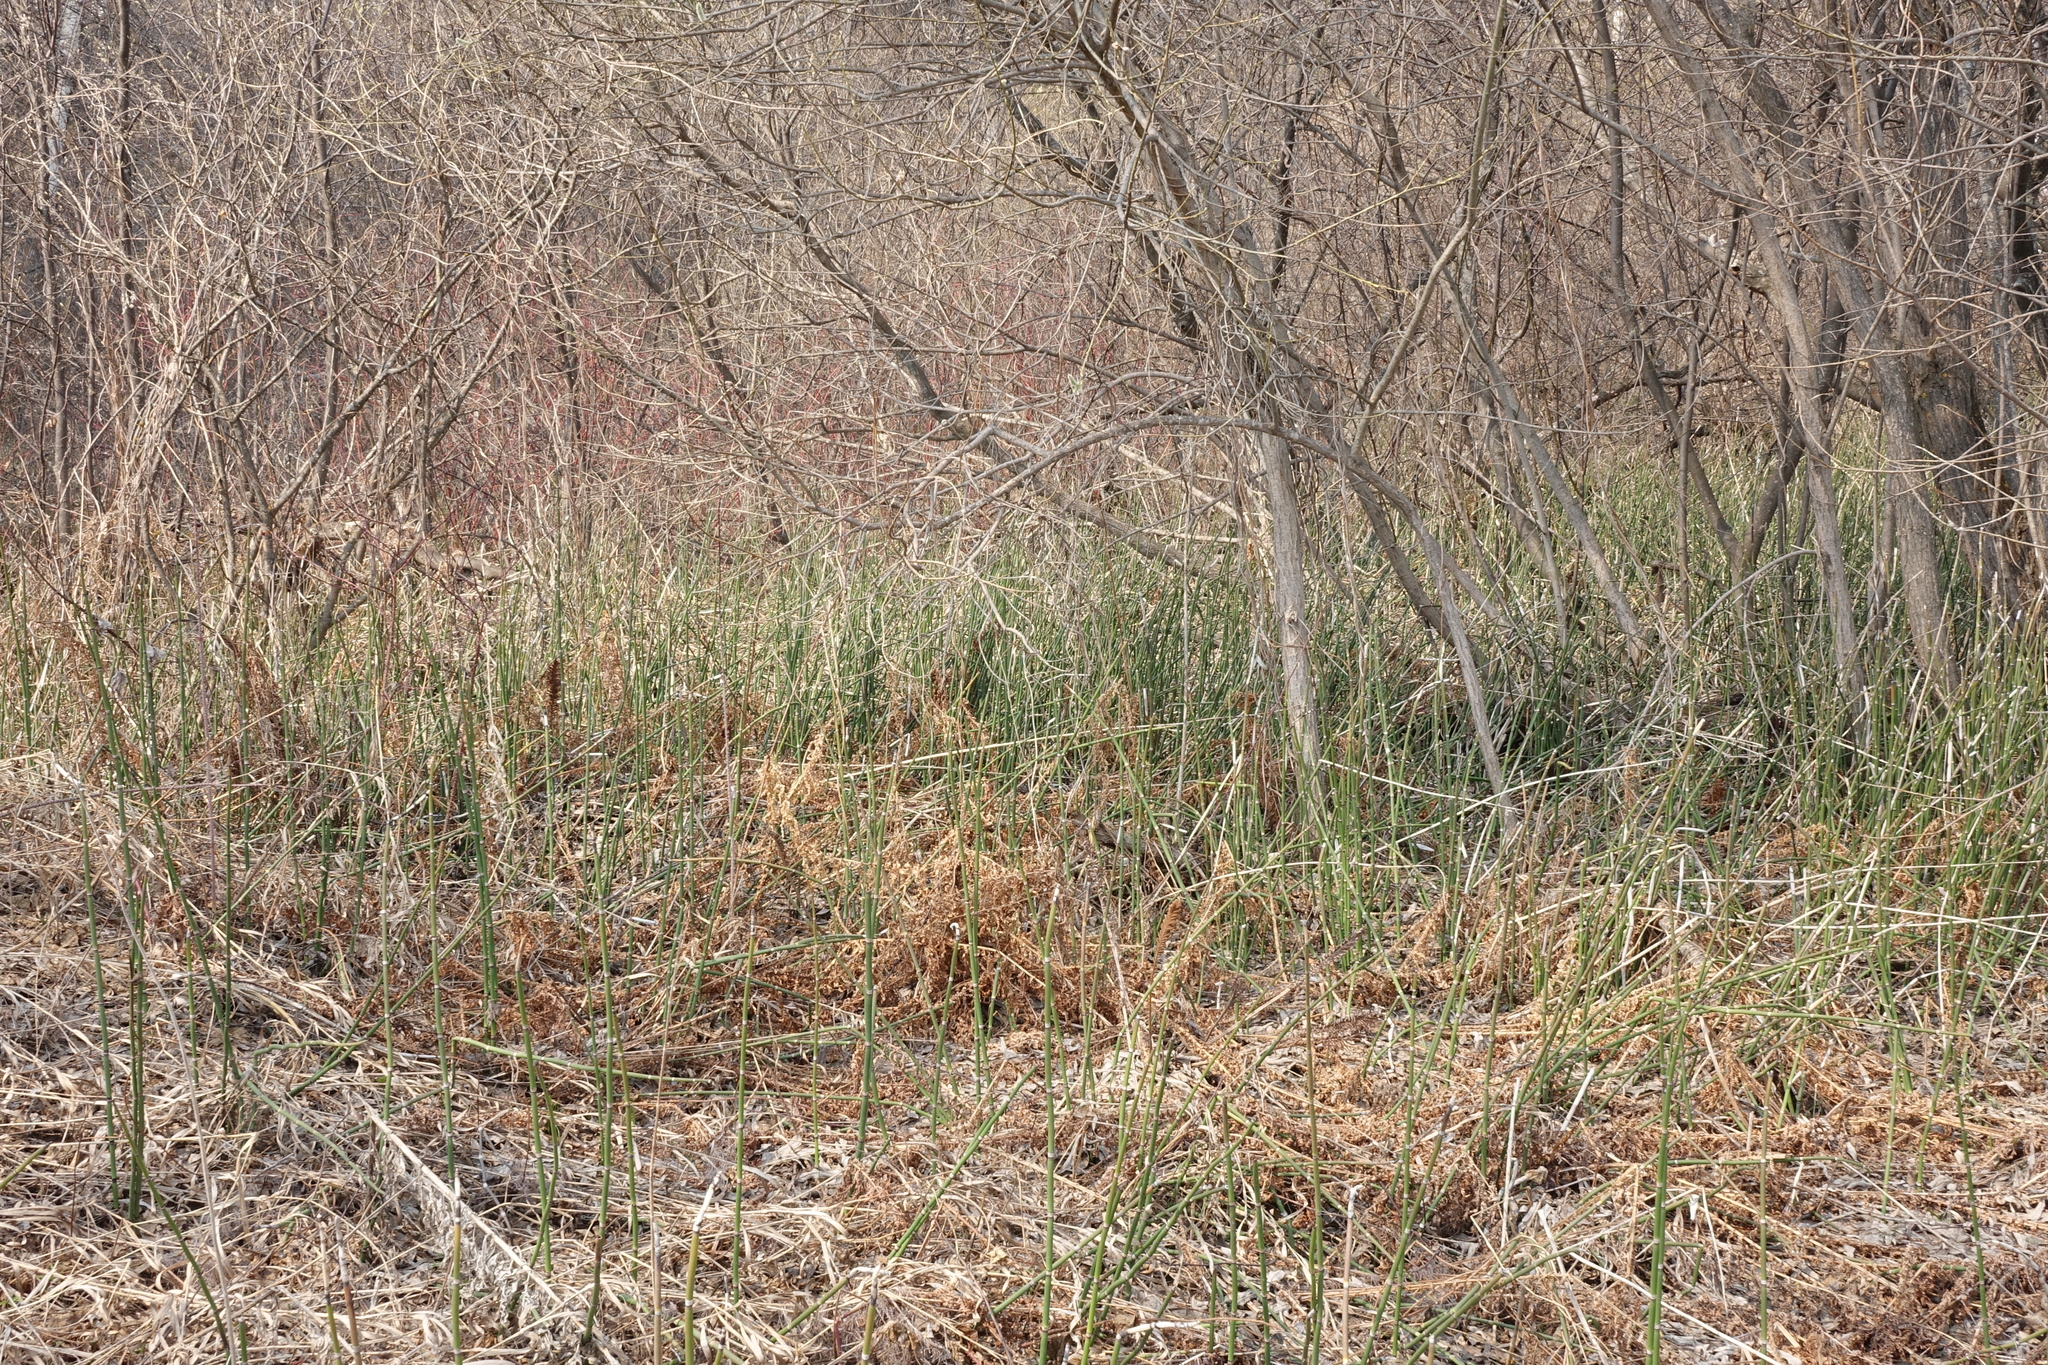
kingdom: Plantae
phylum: Tracheophyta
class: Polypodiopsida
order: Equisetales
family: Equisetaceae
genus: Equisetum
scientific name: Equisetum hyemale
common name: Rough horsetail
